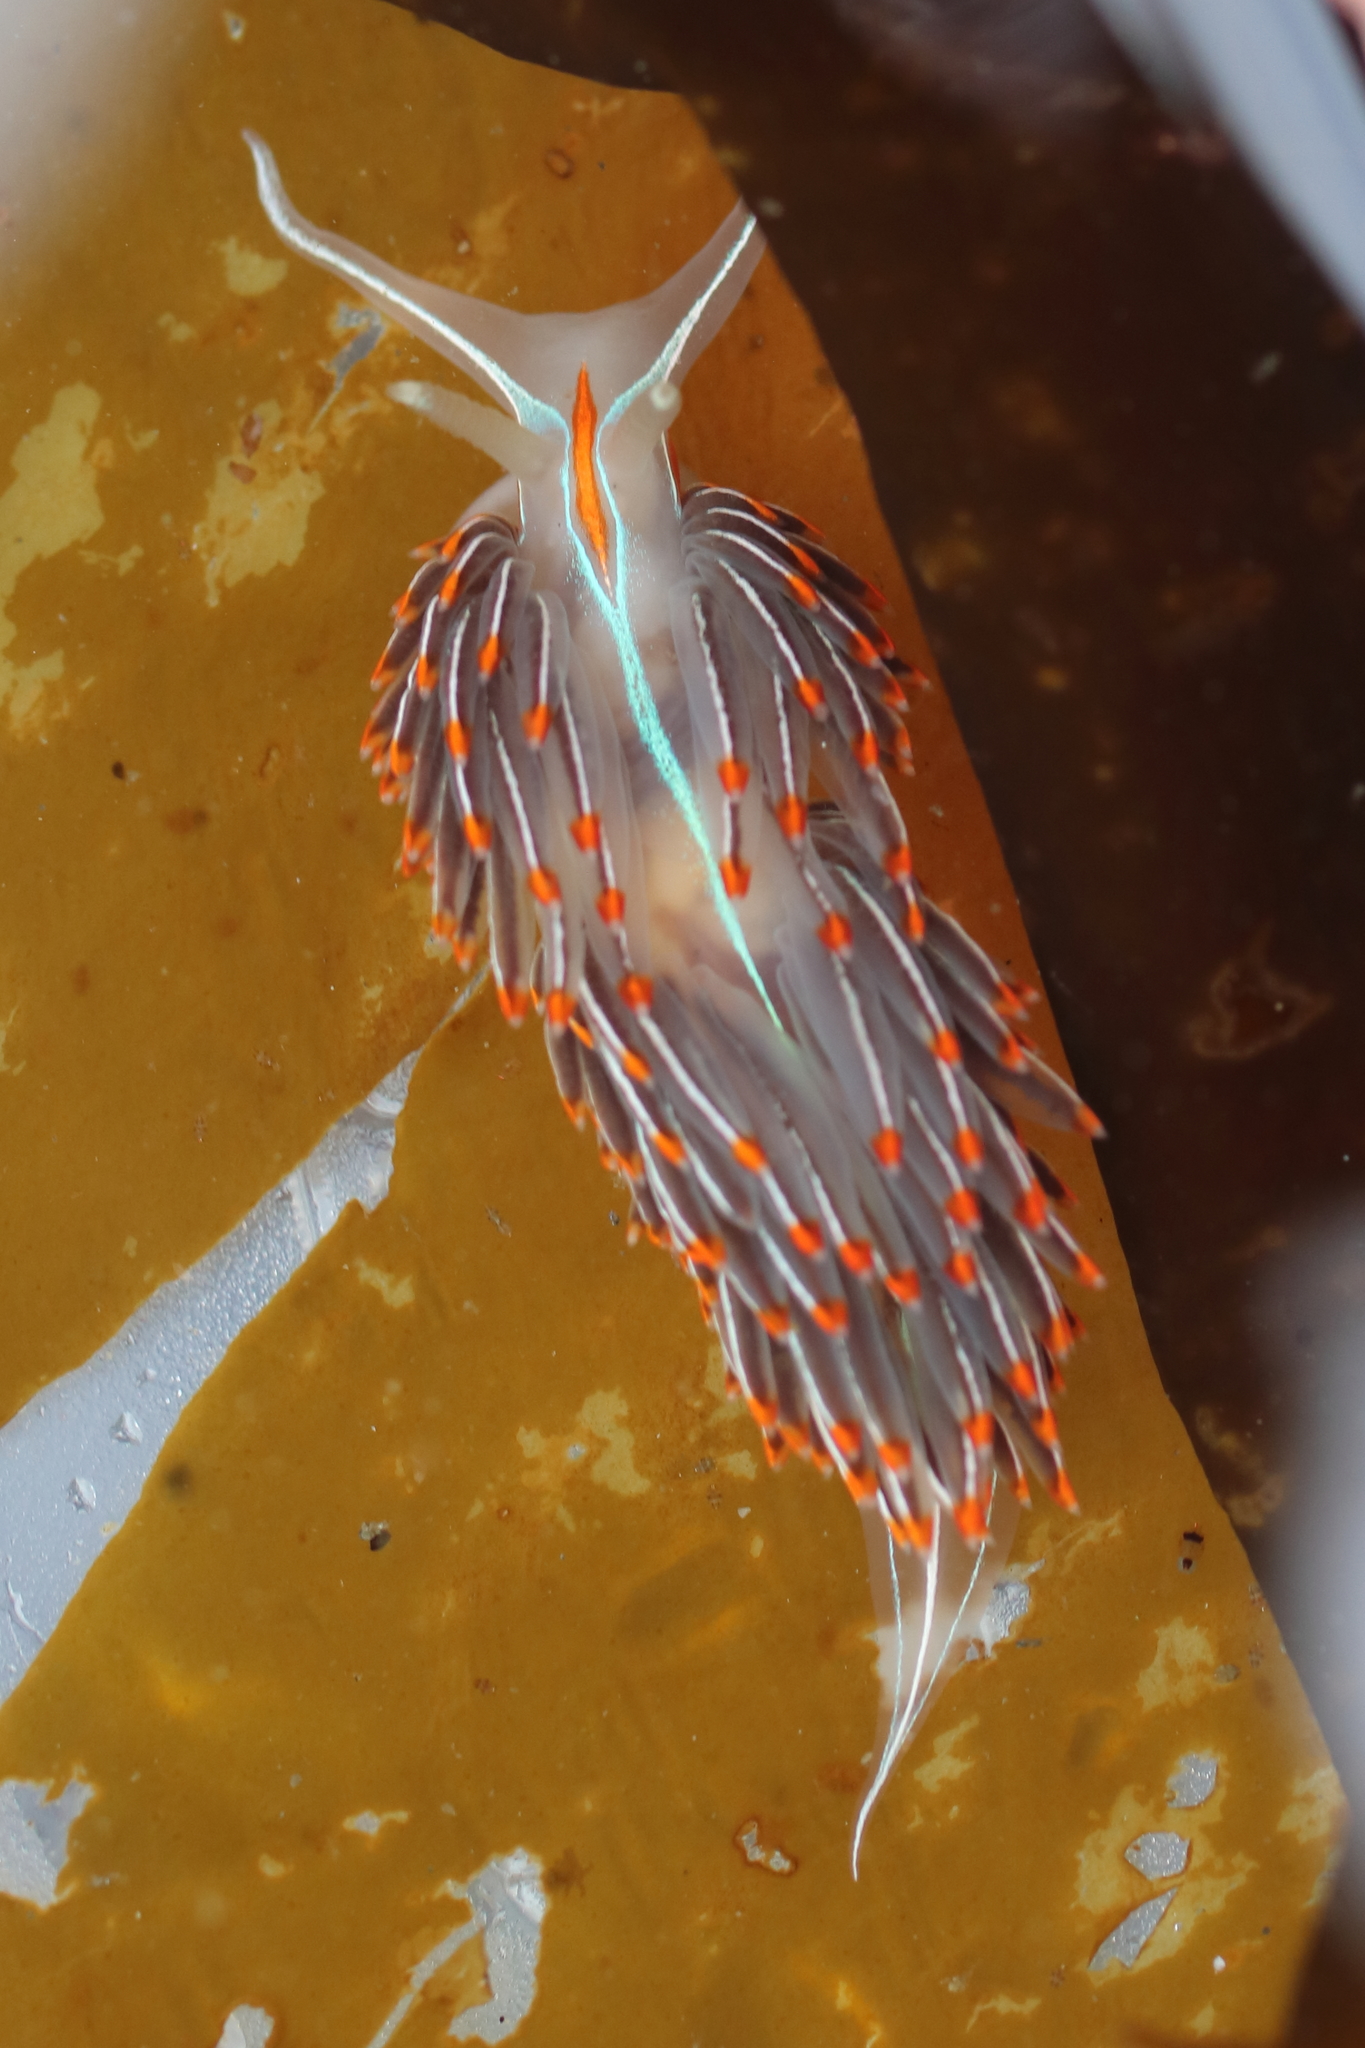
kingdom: Animalia
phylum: Mollusca
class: Gastropoda
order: Nudibranchia
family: Myrrhinidae
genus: Hermissenda
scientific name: Hermissenda crassicornis
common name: Hermissenda
